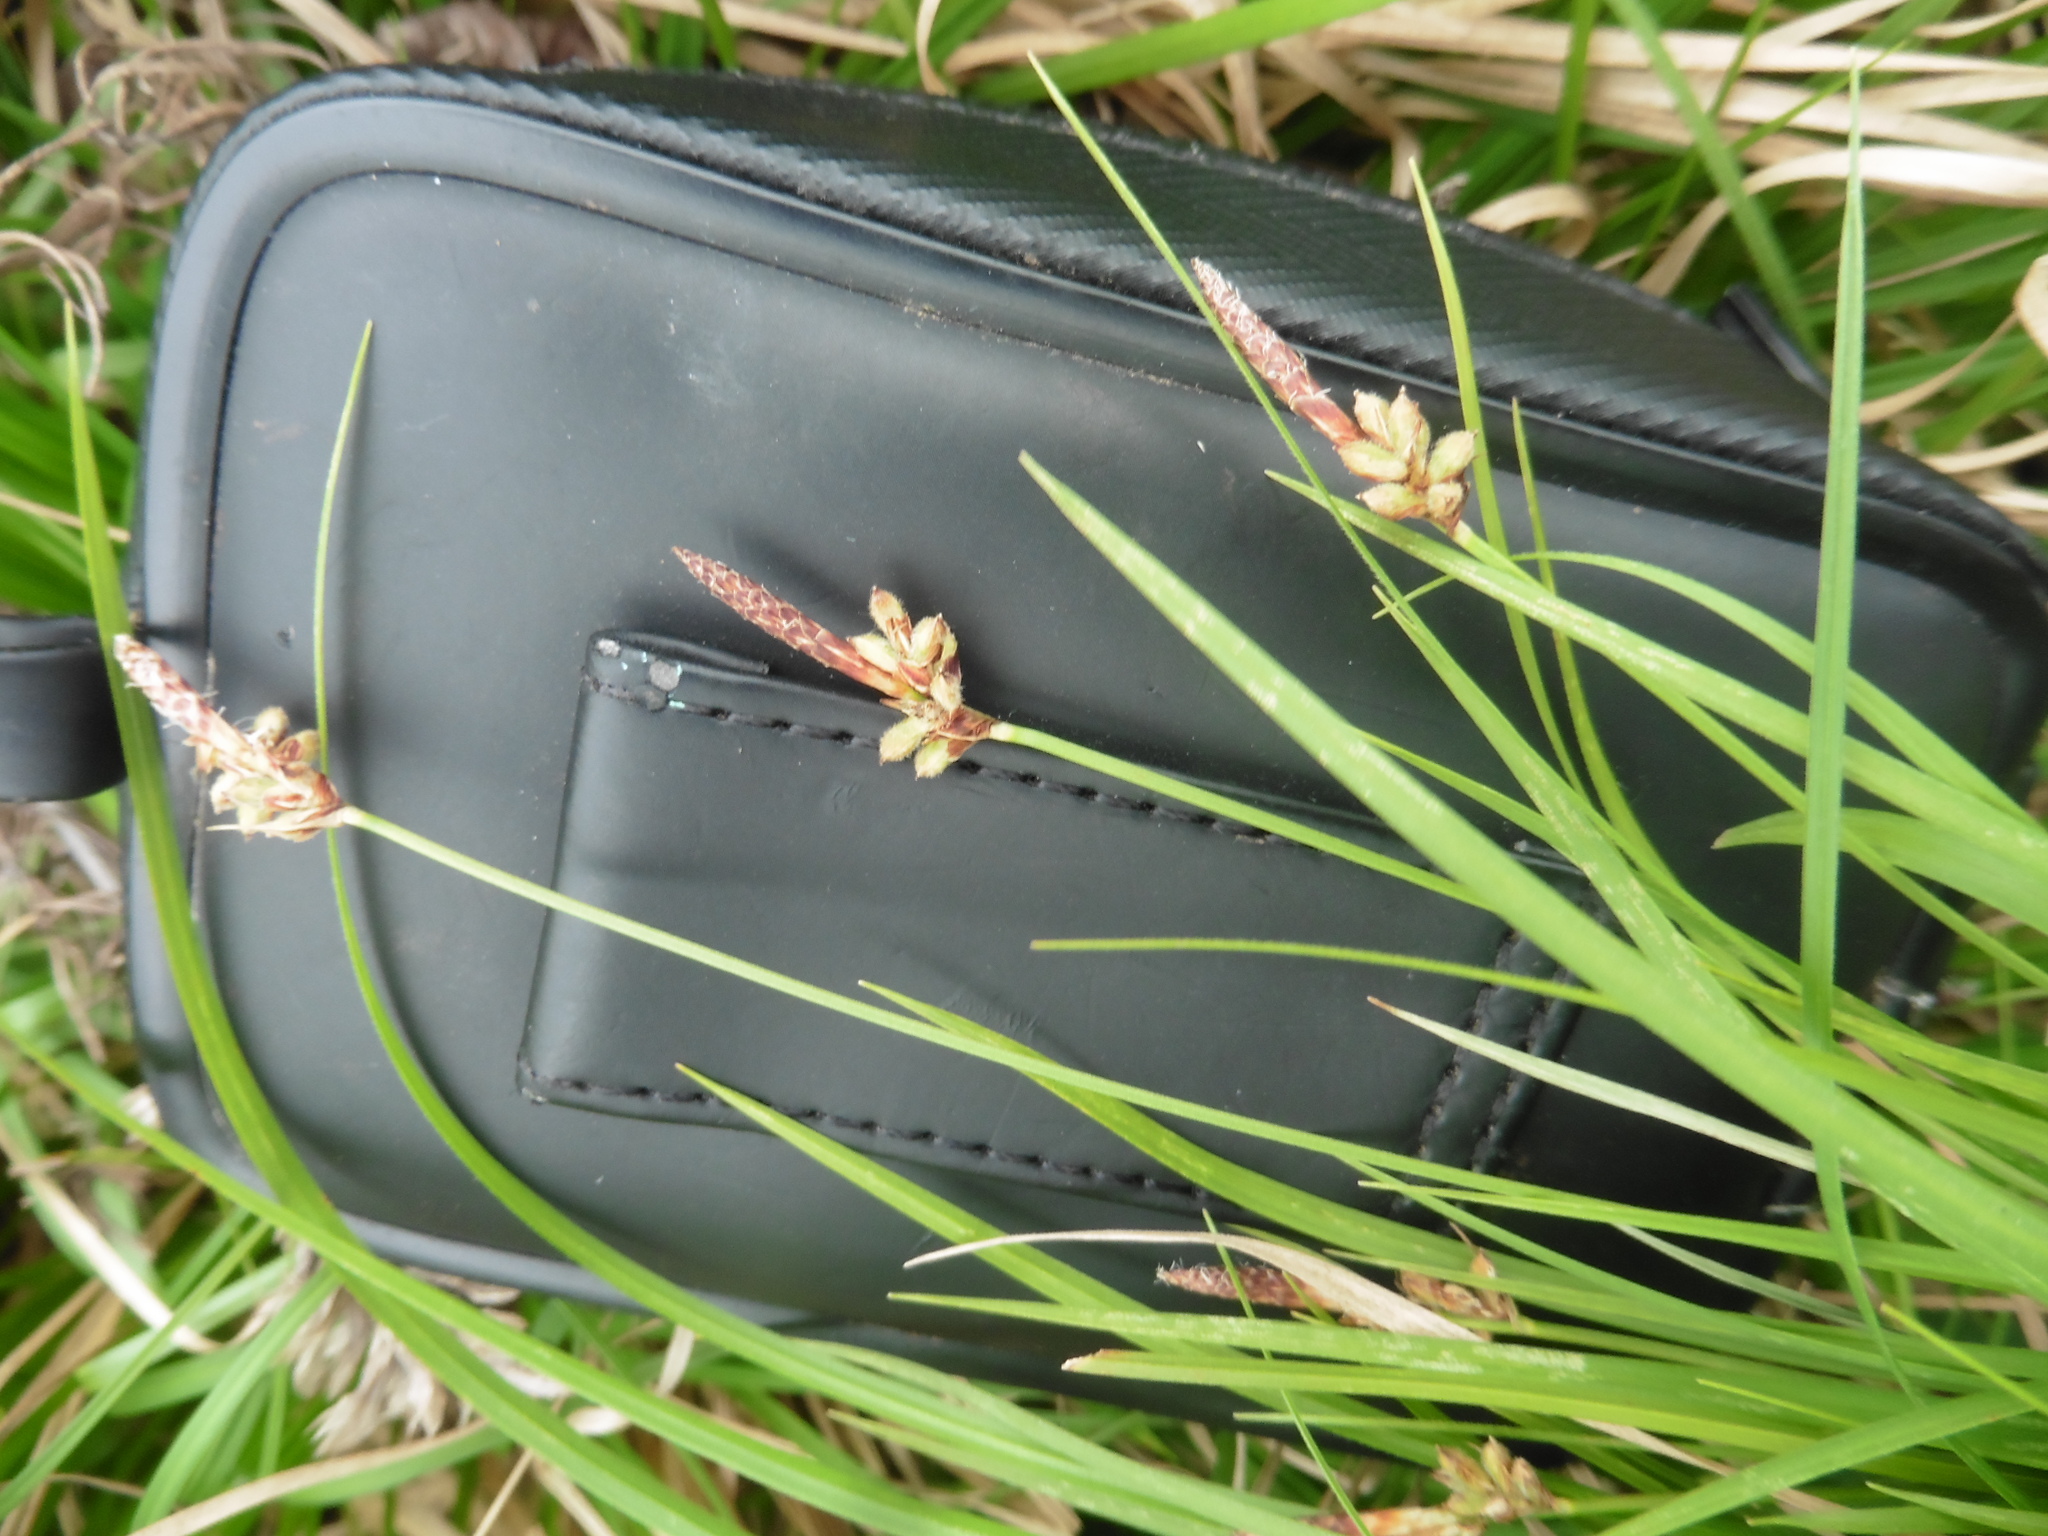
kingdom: Plantae
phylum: Tracheophyta
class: Liliopsida
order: Poales
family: Cyperaceae
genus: Carex
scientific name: Carex montana
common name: Soft-leaved sedge
